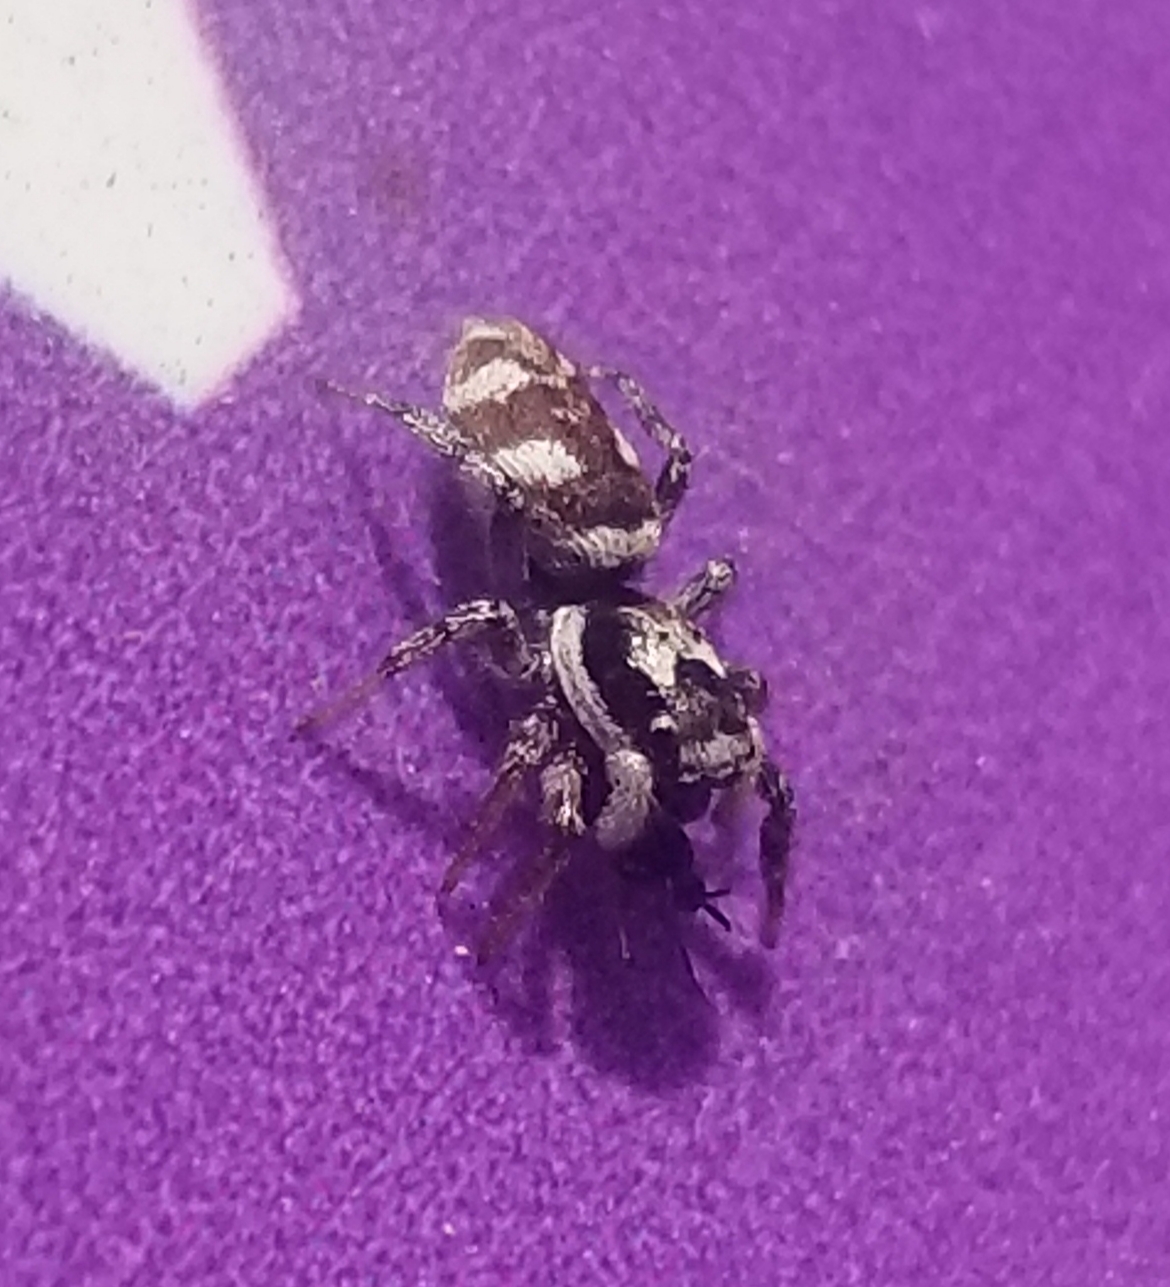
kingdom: Animalia
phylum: Arthropoda
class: Arachnida
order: Araneae
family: Salticidae
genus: Salticus
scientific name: Salticus scenicus
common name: Zebra jumper
